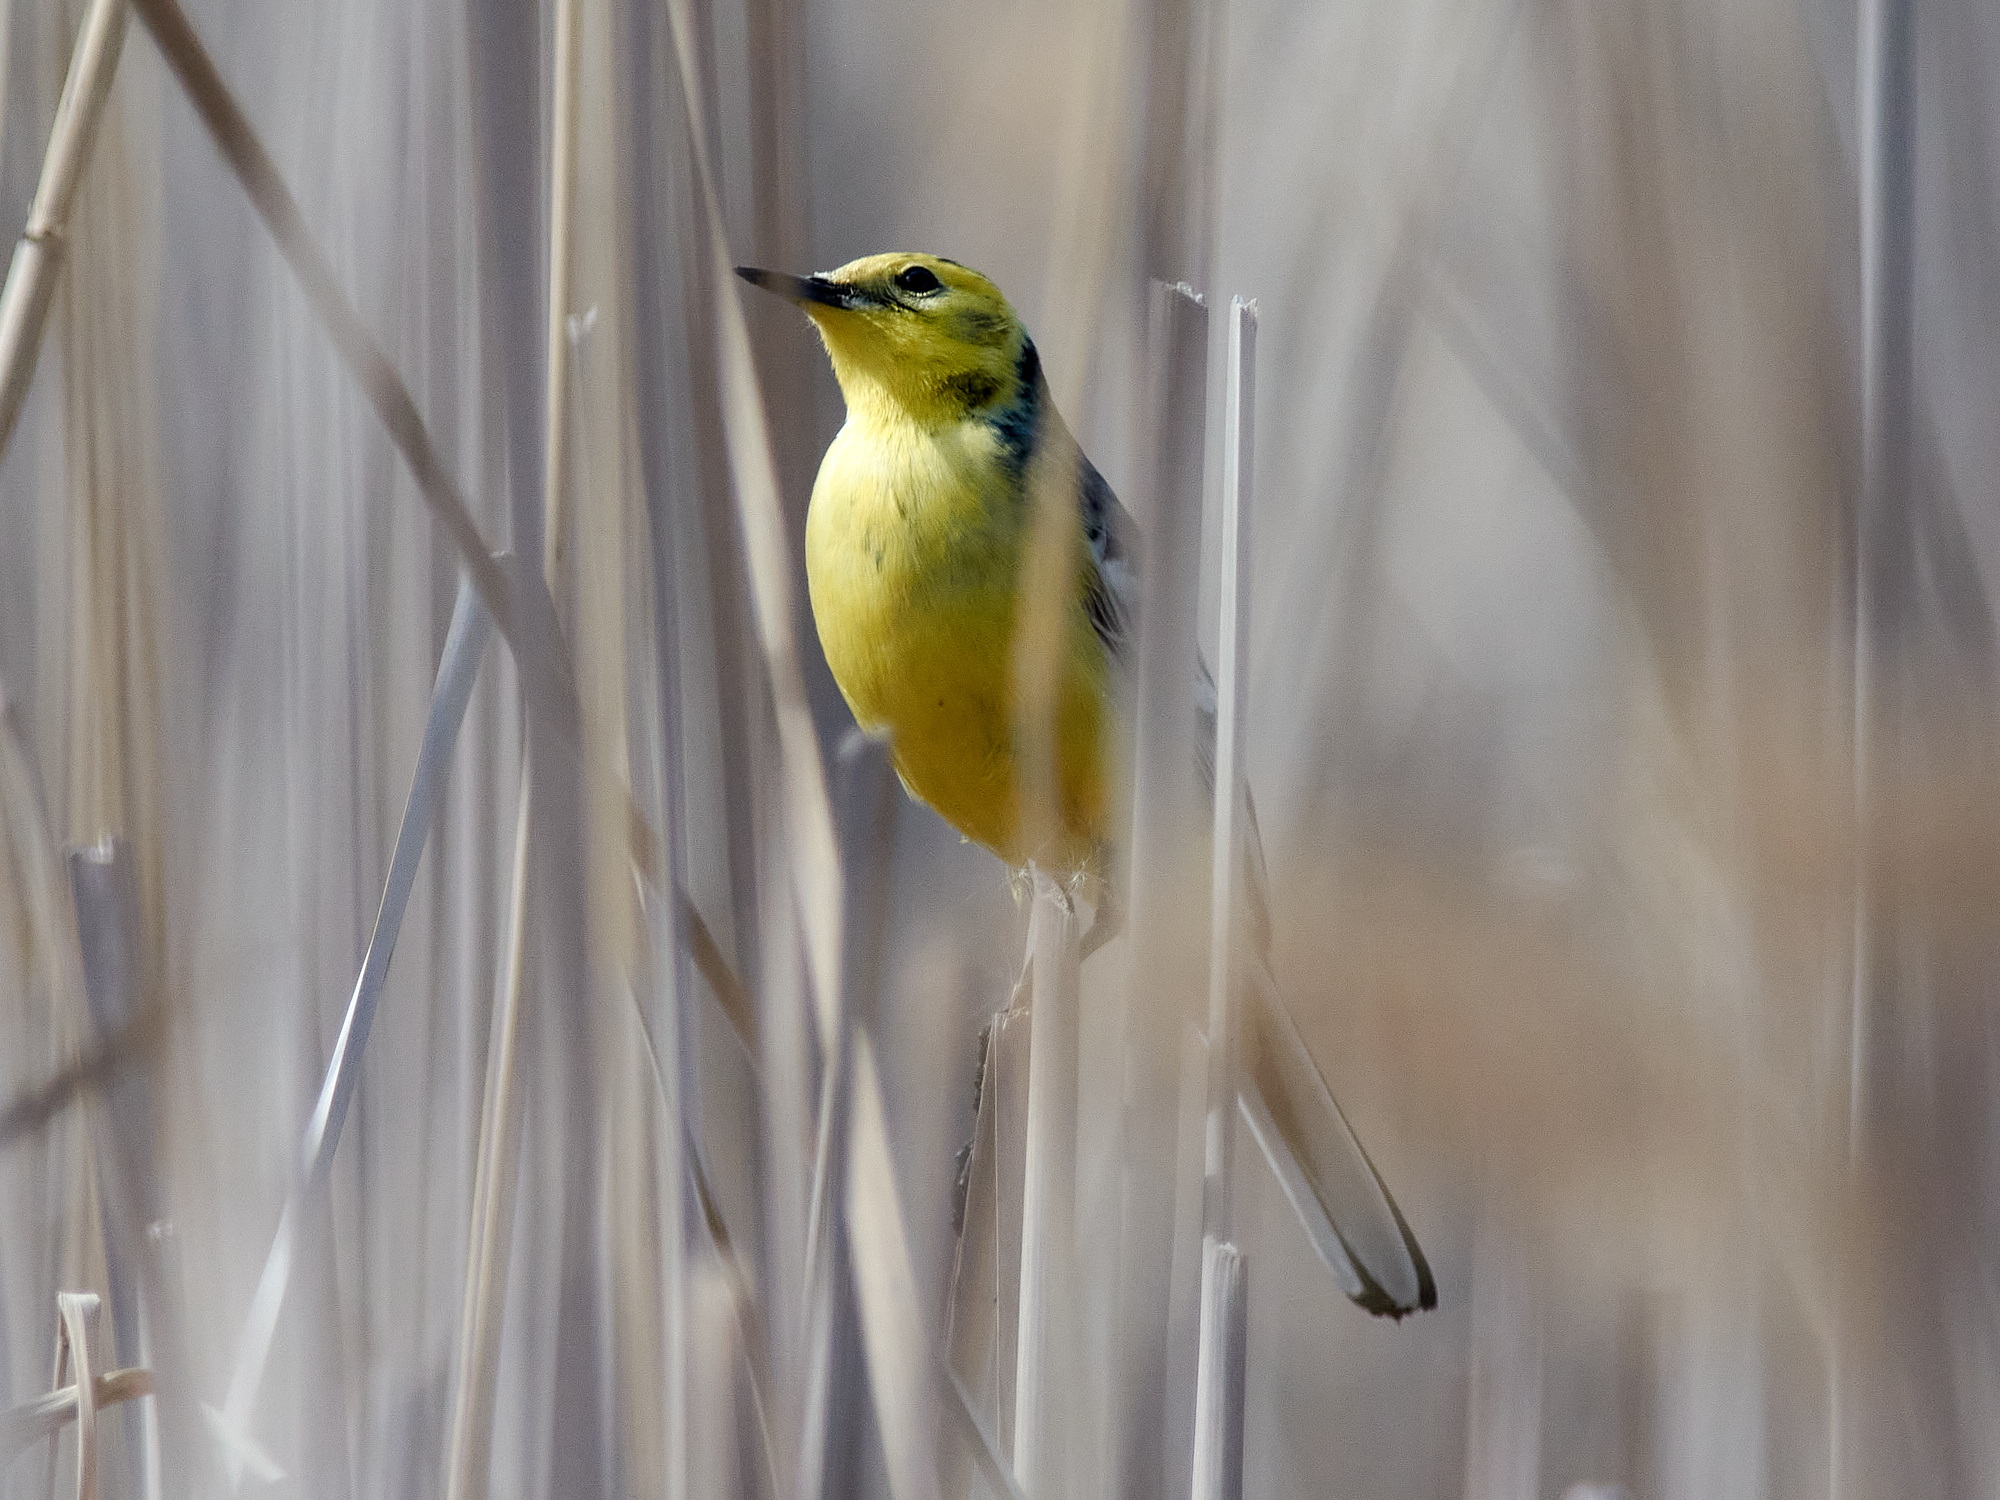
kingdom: Animalia
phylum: Chordata
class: Aves
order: Passeriformes
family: Motacillidae
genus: Motacilla
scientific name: Motacilla citreola
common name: Citrine wagtail
